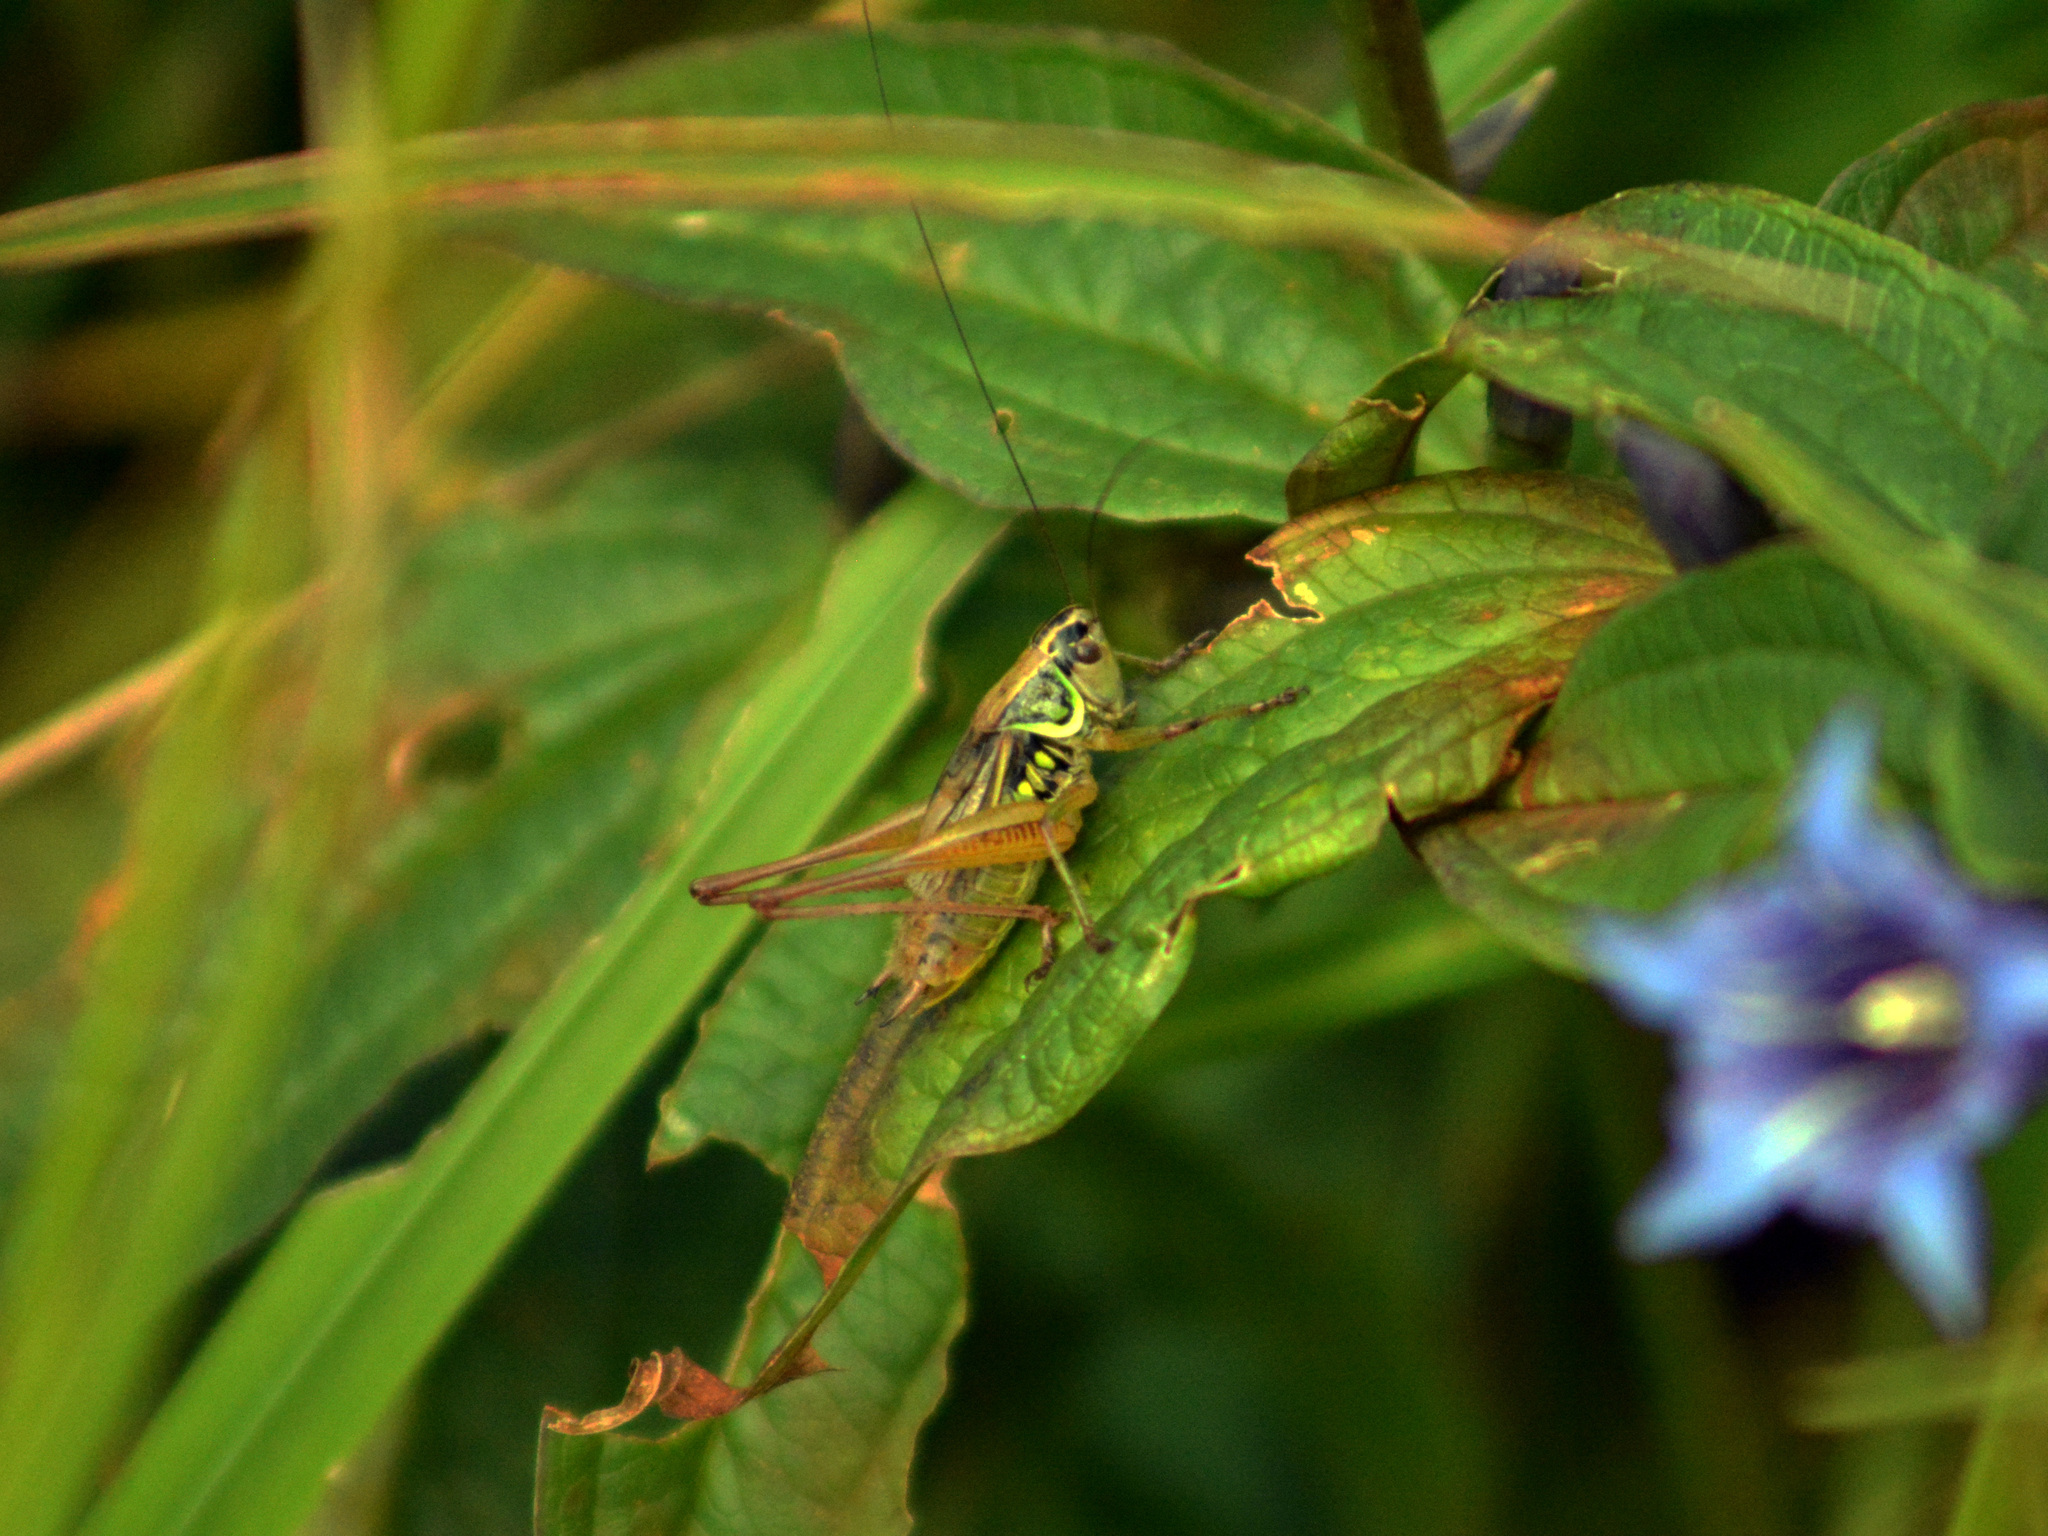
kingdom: Animalia
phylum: Arthropoda
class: Insecta
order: Orthoptera
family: Tettigoniidae
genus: Roeseliana
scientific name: Roeseliana roeselii
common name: Roesel's bush cricket
